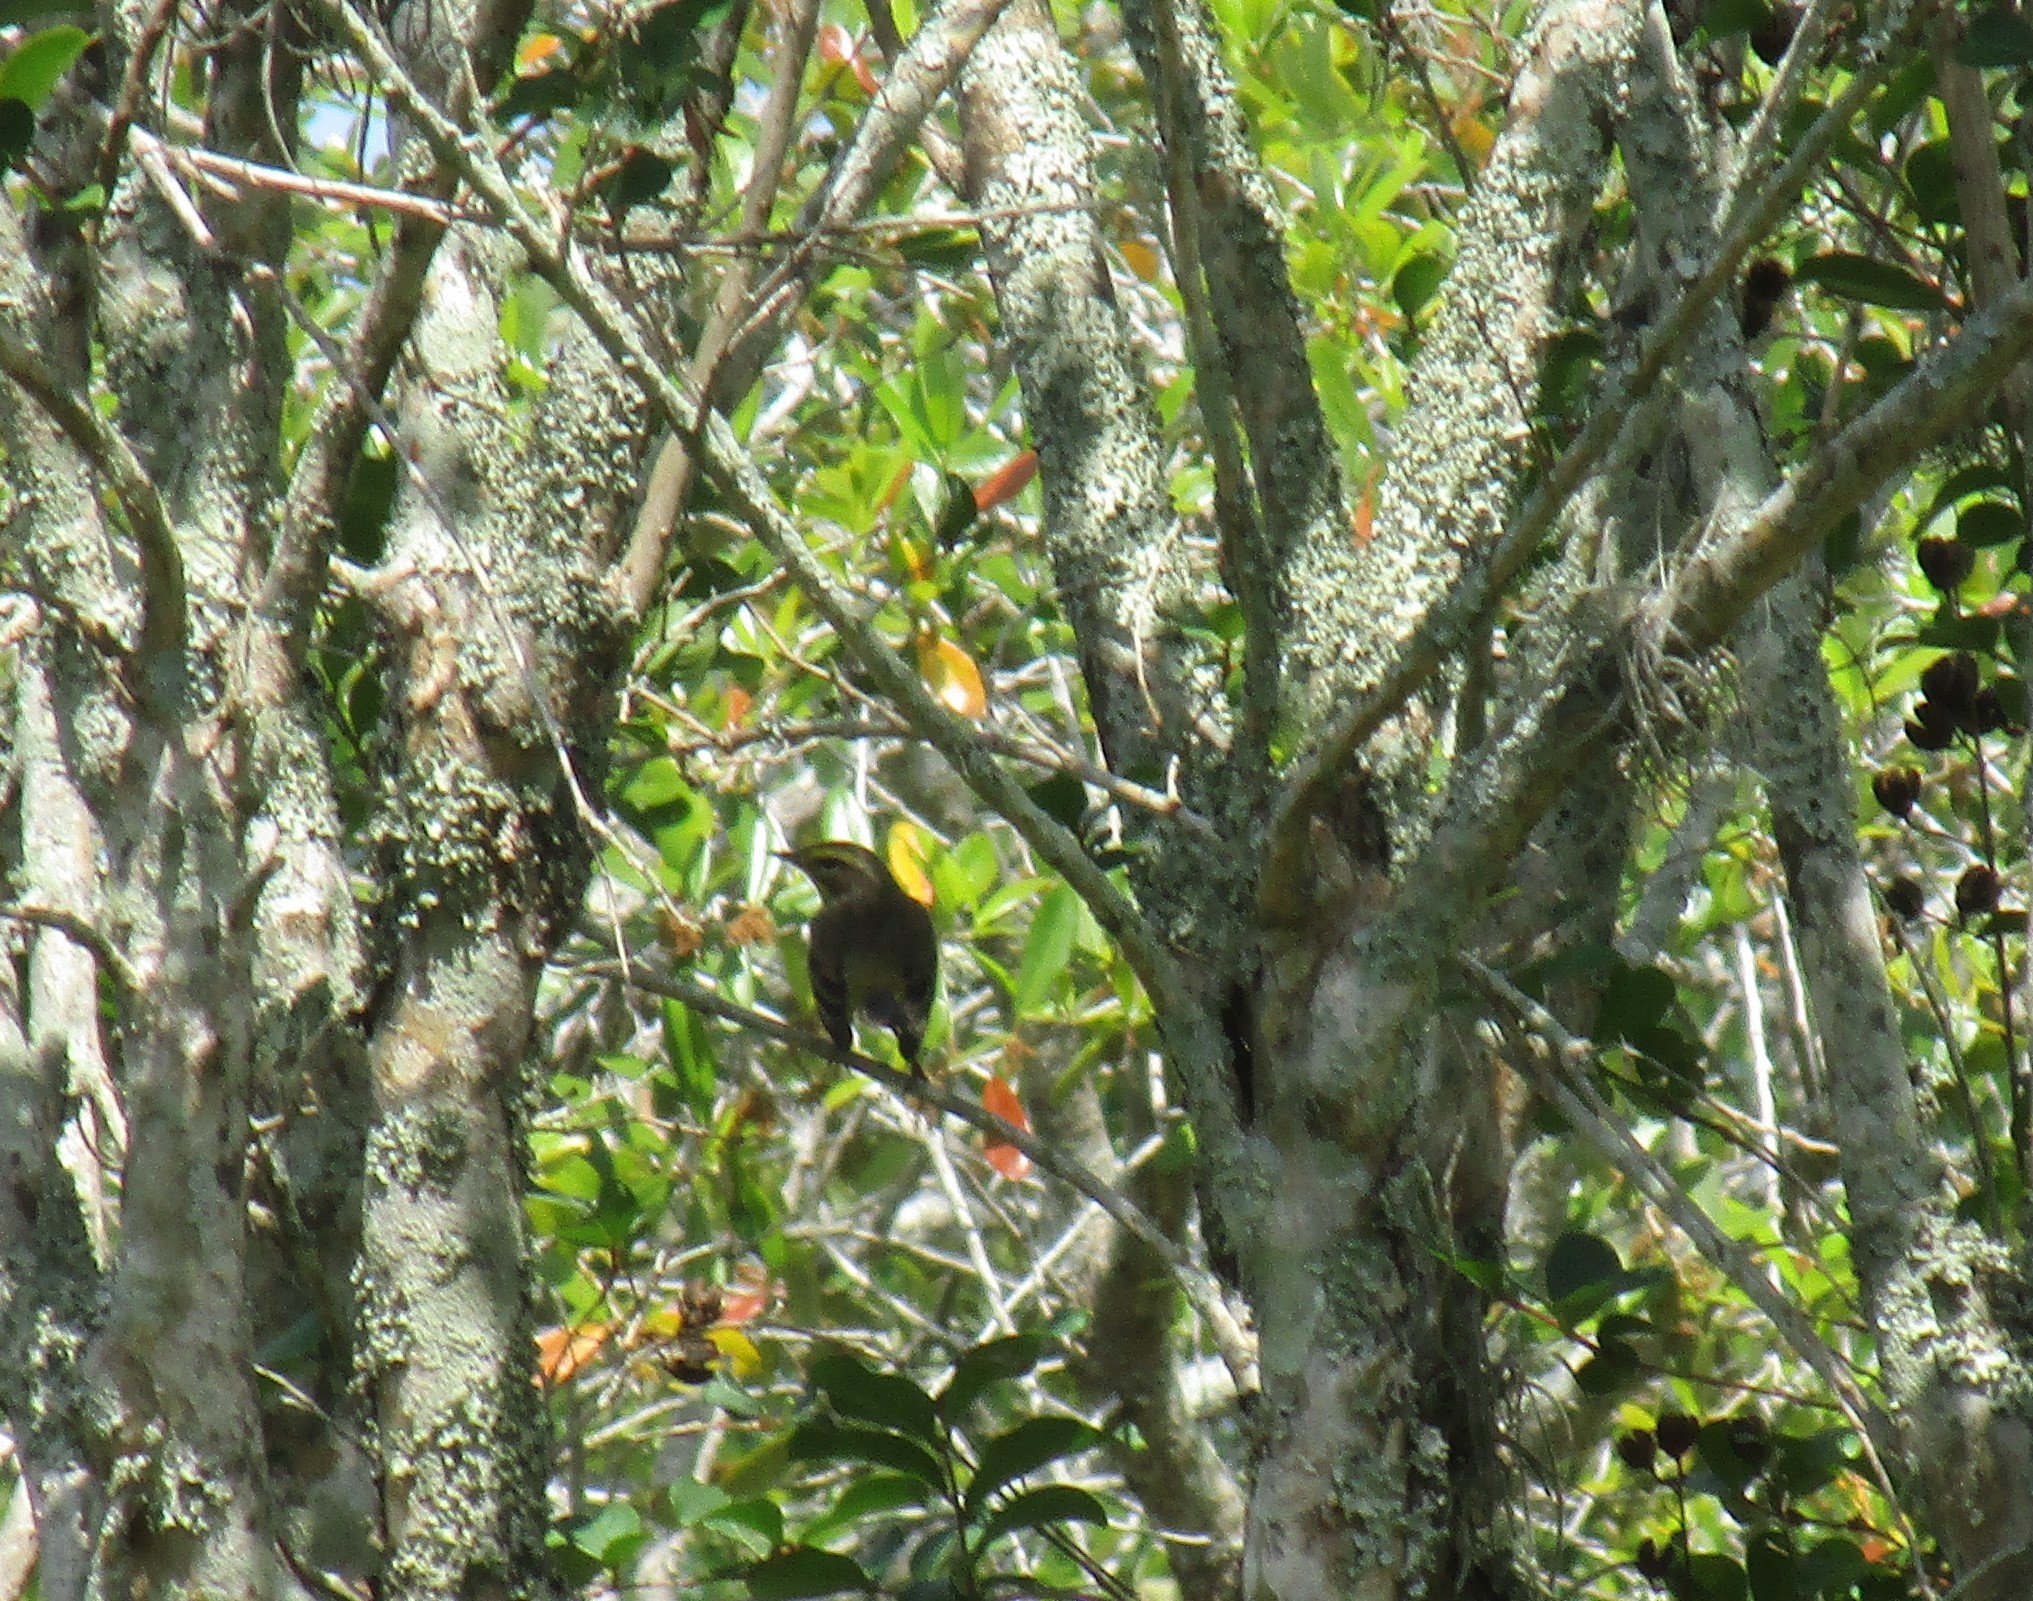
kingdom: Animalia
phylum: Chordata
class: Aves
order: Passeriformes
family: Parulidae
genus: Setophaga
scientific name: Setophaga palmarum
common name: Palm warbler
